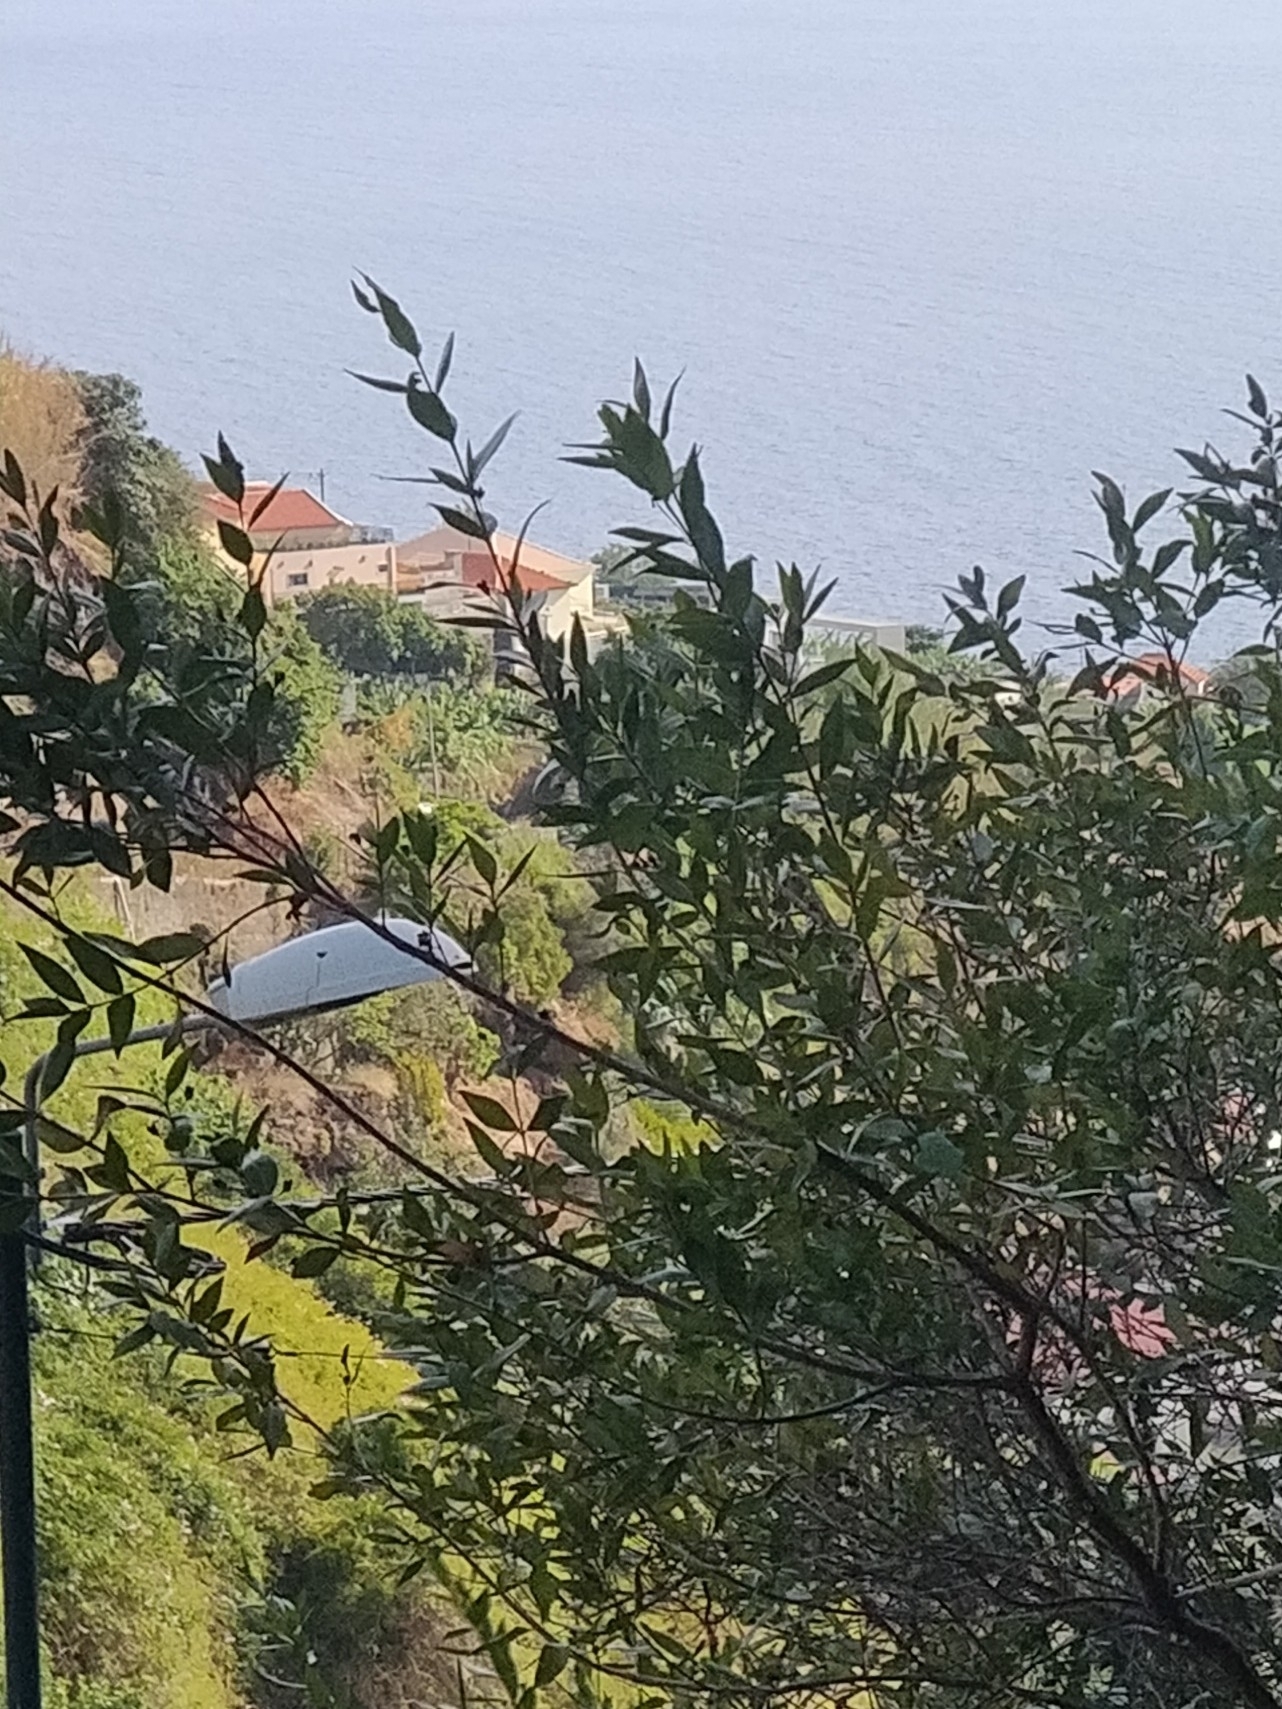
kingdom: Plantae
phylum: Tracheophyta
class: Magnoliopsida
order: Myrtales
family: Myrtaceae
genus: Myrtus
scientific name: Myrtus communis
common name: Myrtle
